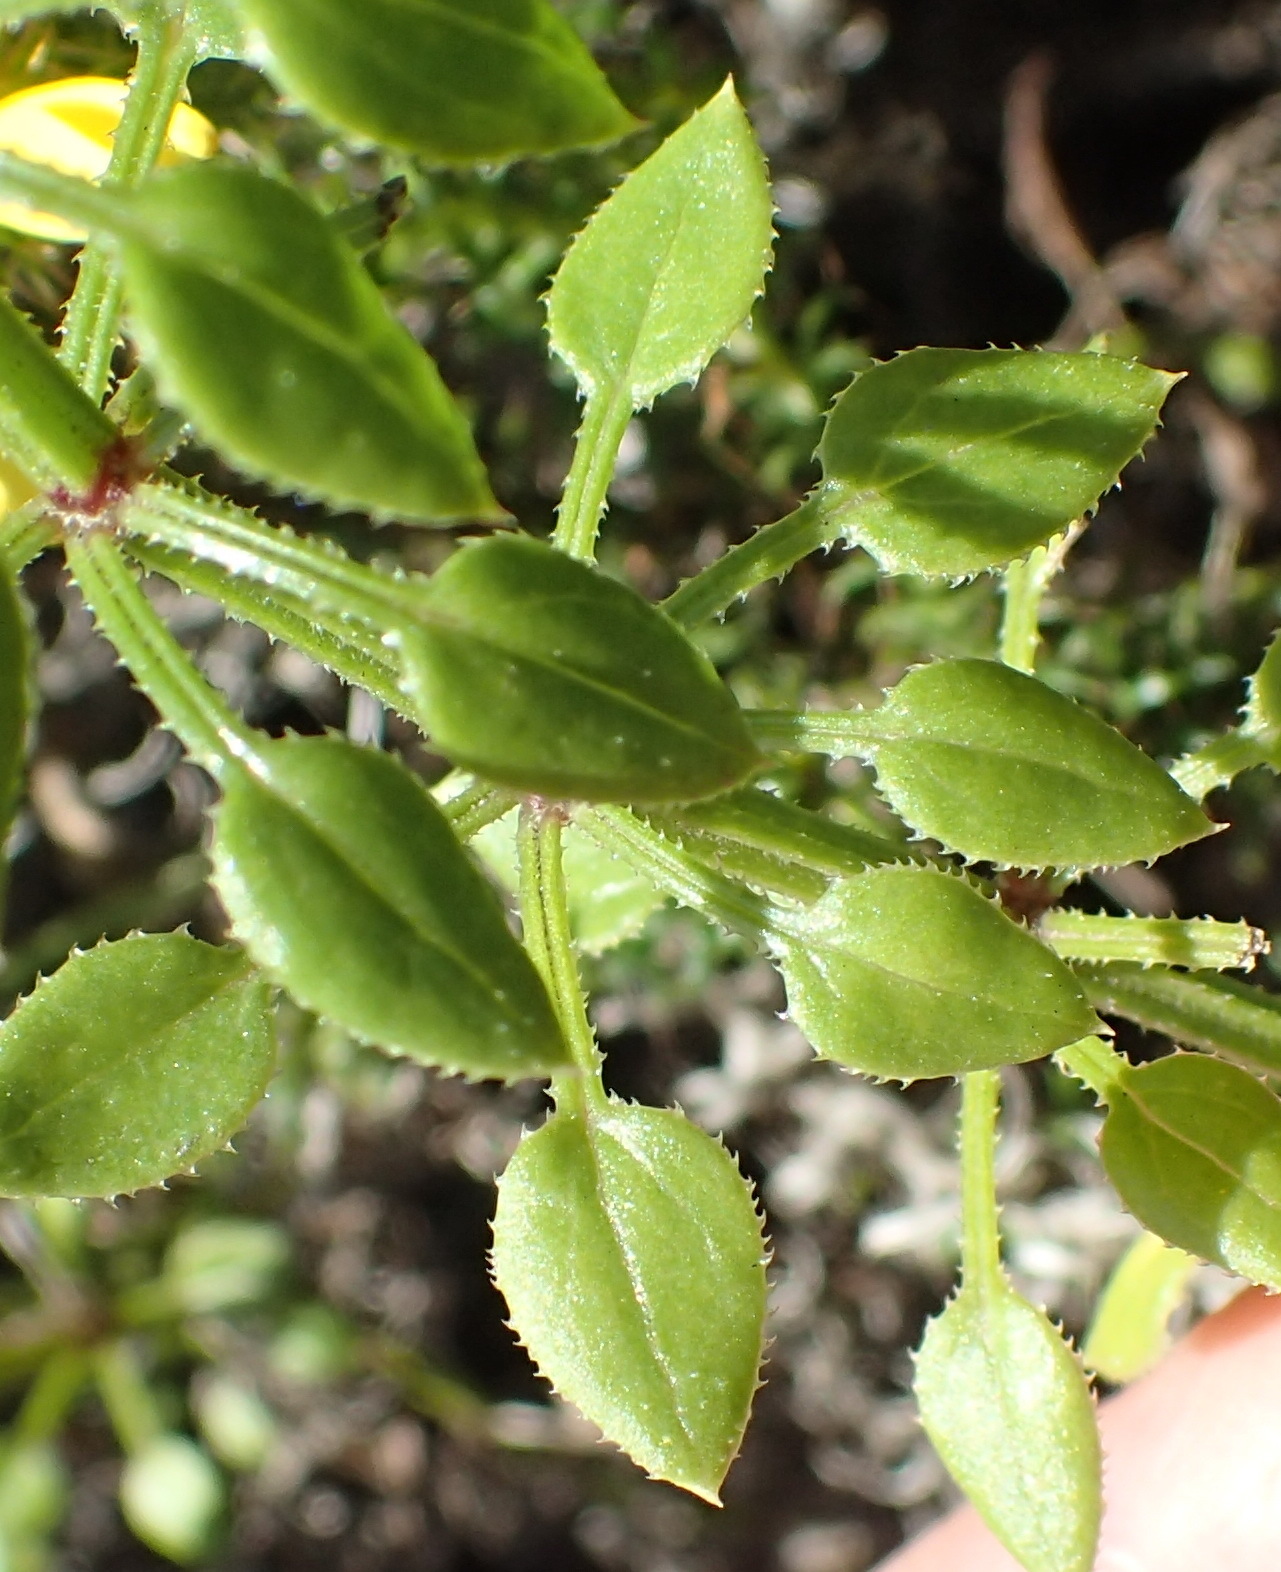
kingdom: Plantae
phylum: Tracheophyta
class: Magnoliopsida
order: Gentianales
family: Rubiaceae
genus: Rubia
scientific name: Rubia petiolaris
